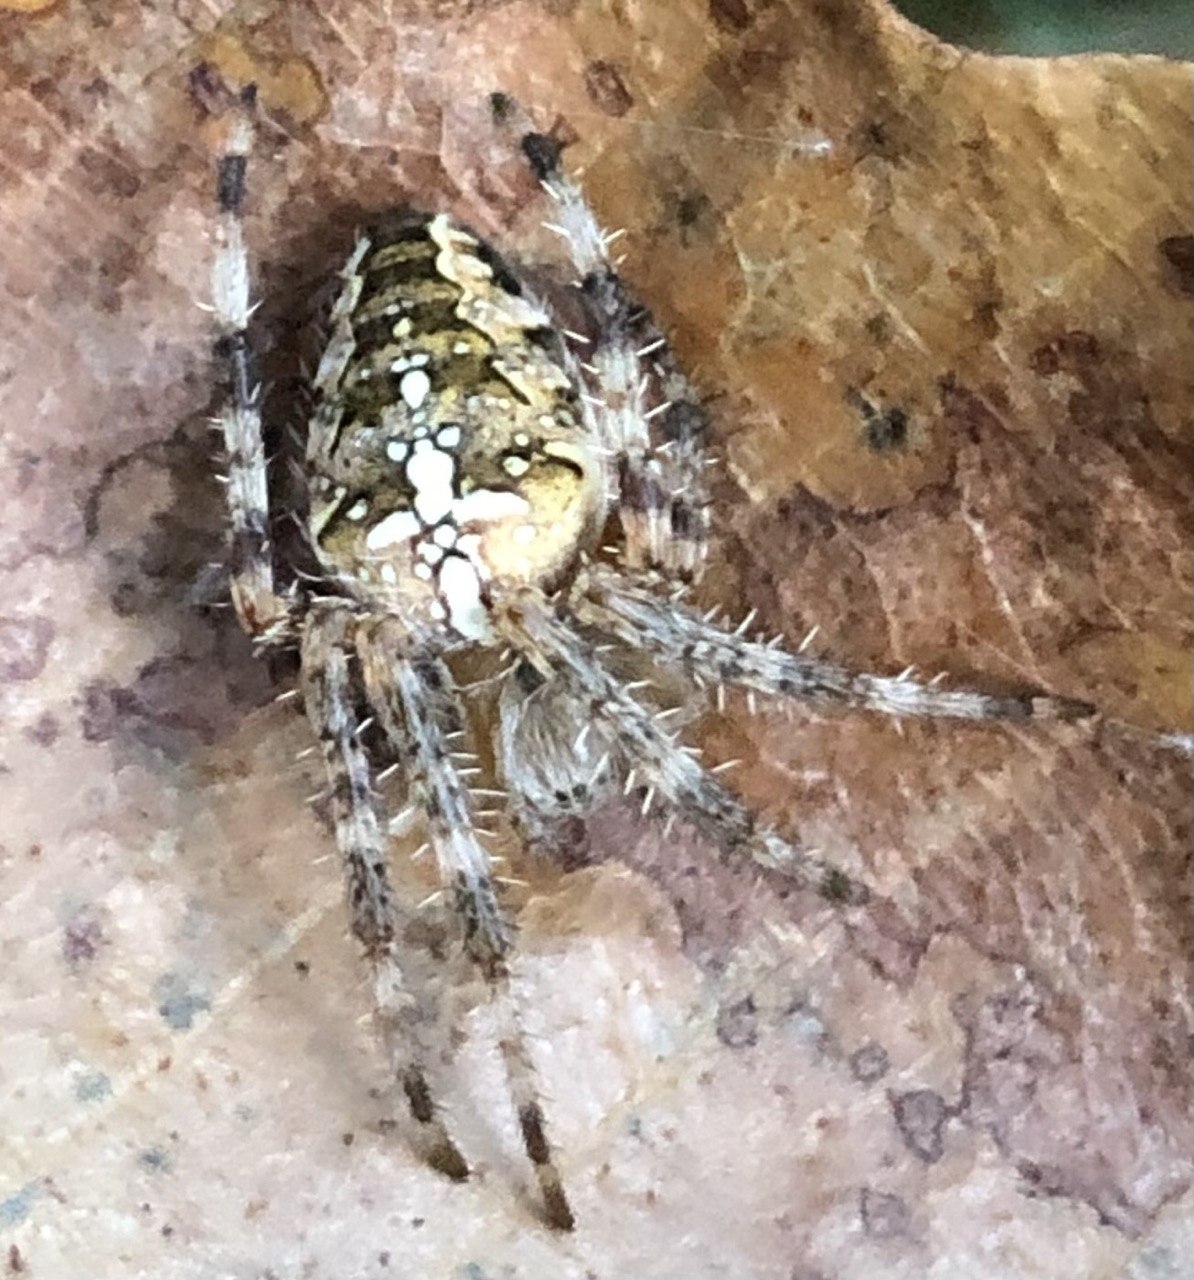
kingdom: Animalia
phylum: Arthropoda
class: Arachnida
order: Araneae
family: Araneidae
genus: Araneus
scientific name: Araneus diadematus
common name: Cross orbweaver
